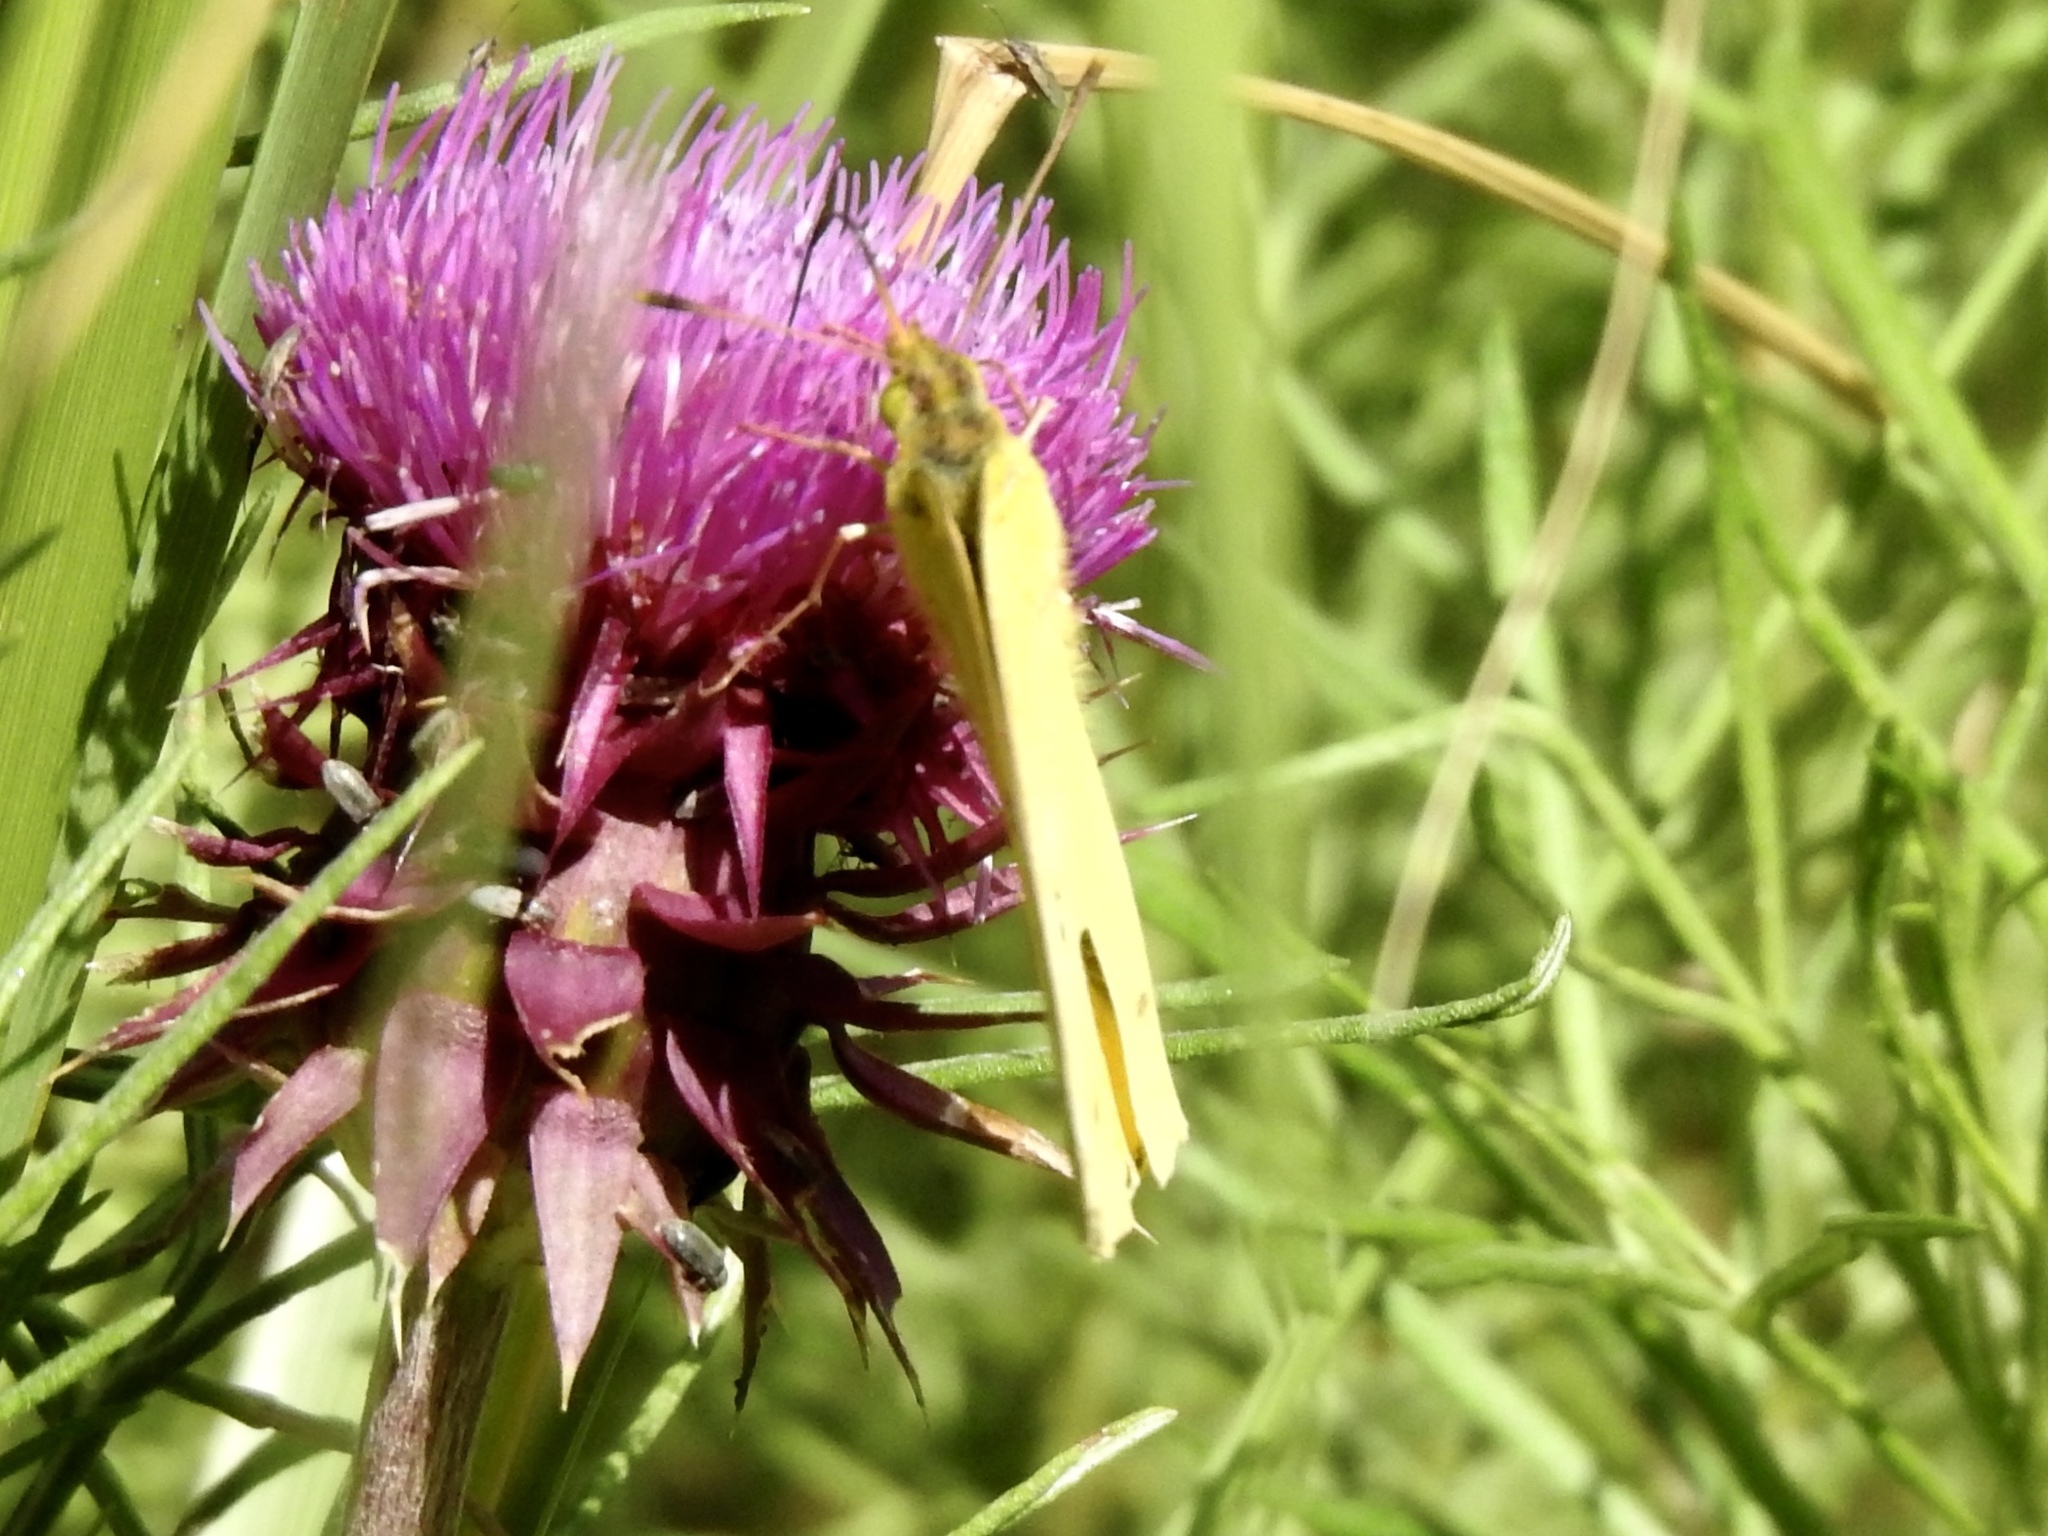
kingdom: Animalia
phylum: Arthropoda
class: Insecta
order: Lepidoptera
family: Pieridae
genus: Colias
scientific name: Colias eurytheme
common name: Alfalfa butterfly
